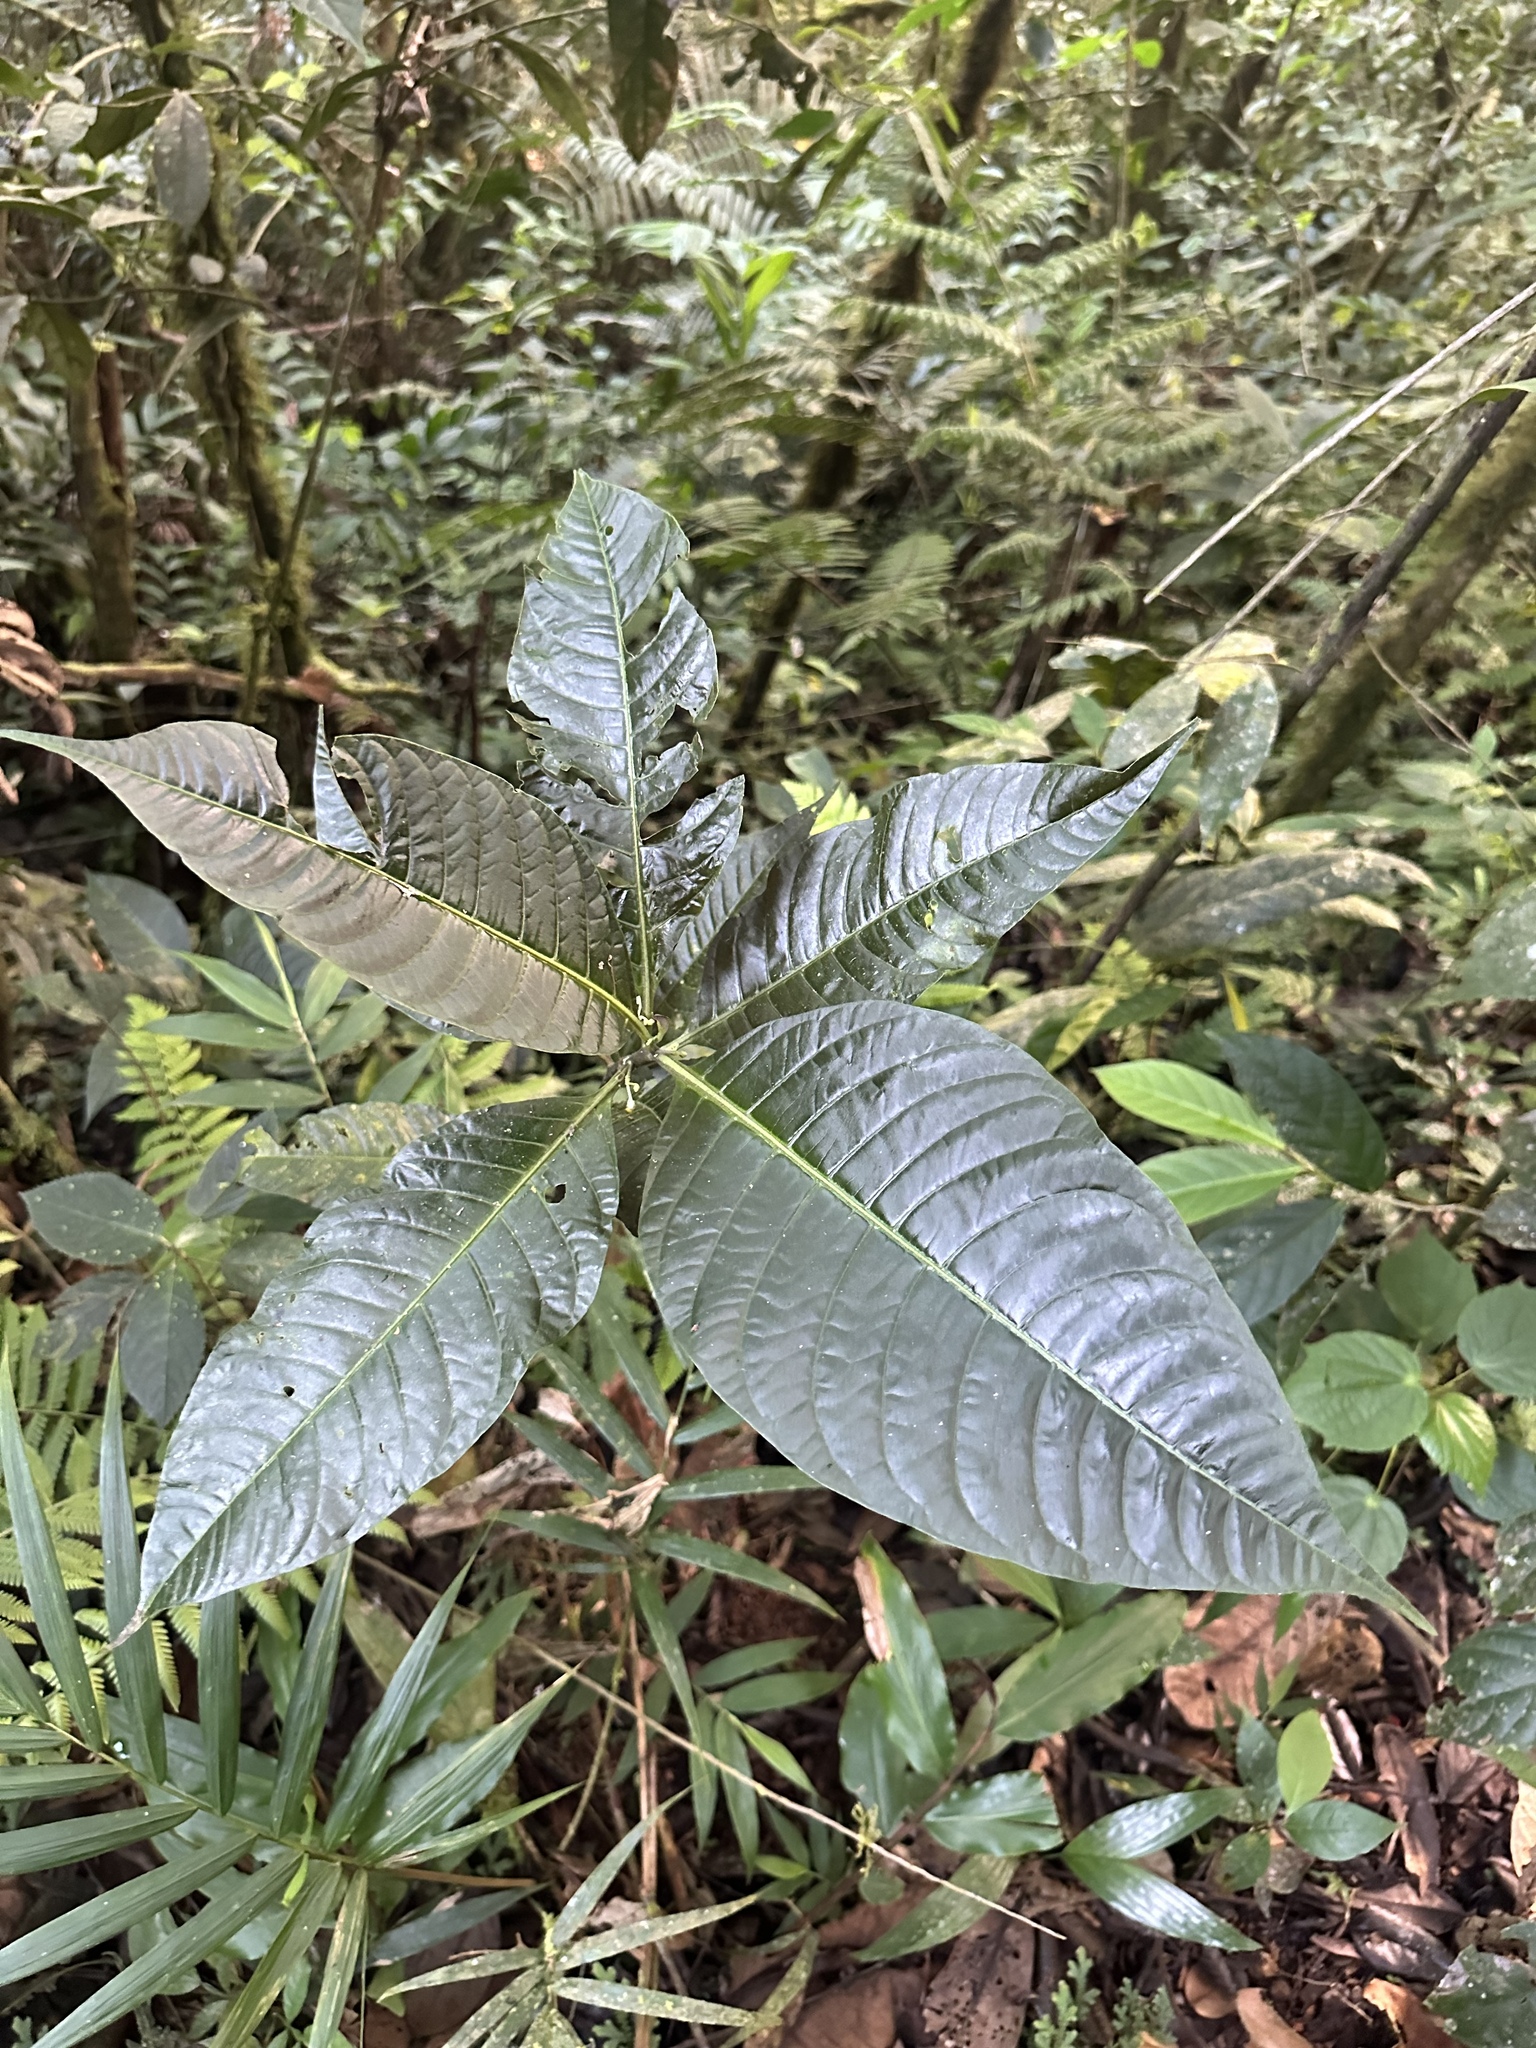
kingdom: Plantae
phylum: Tracheophyta
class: Magnoliopsida
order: Solanales
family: Solanaceae
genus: Solanum
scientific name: Solanum anceps
